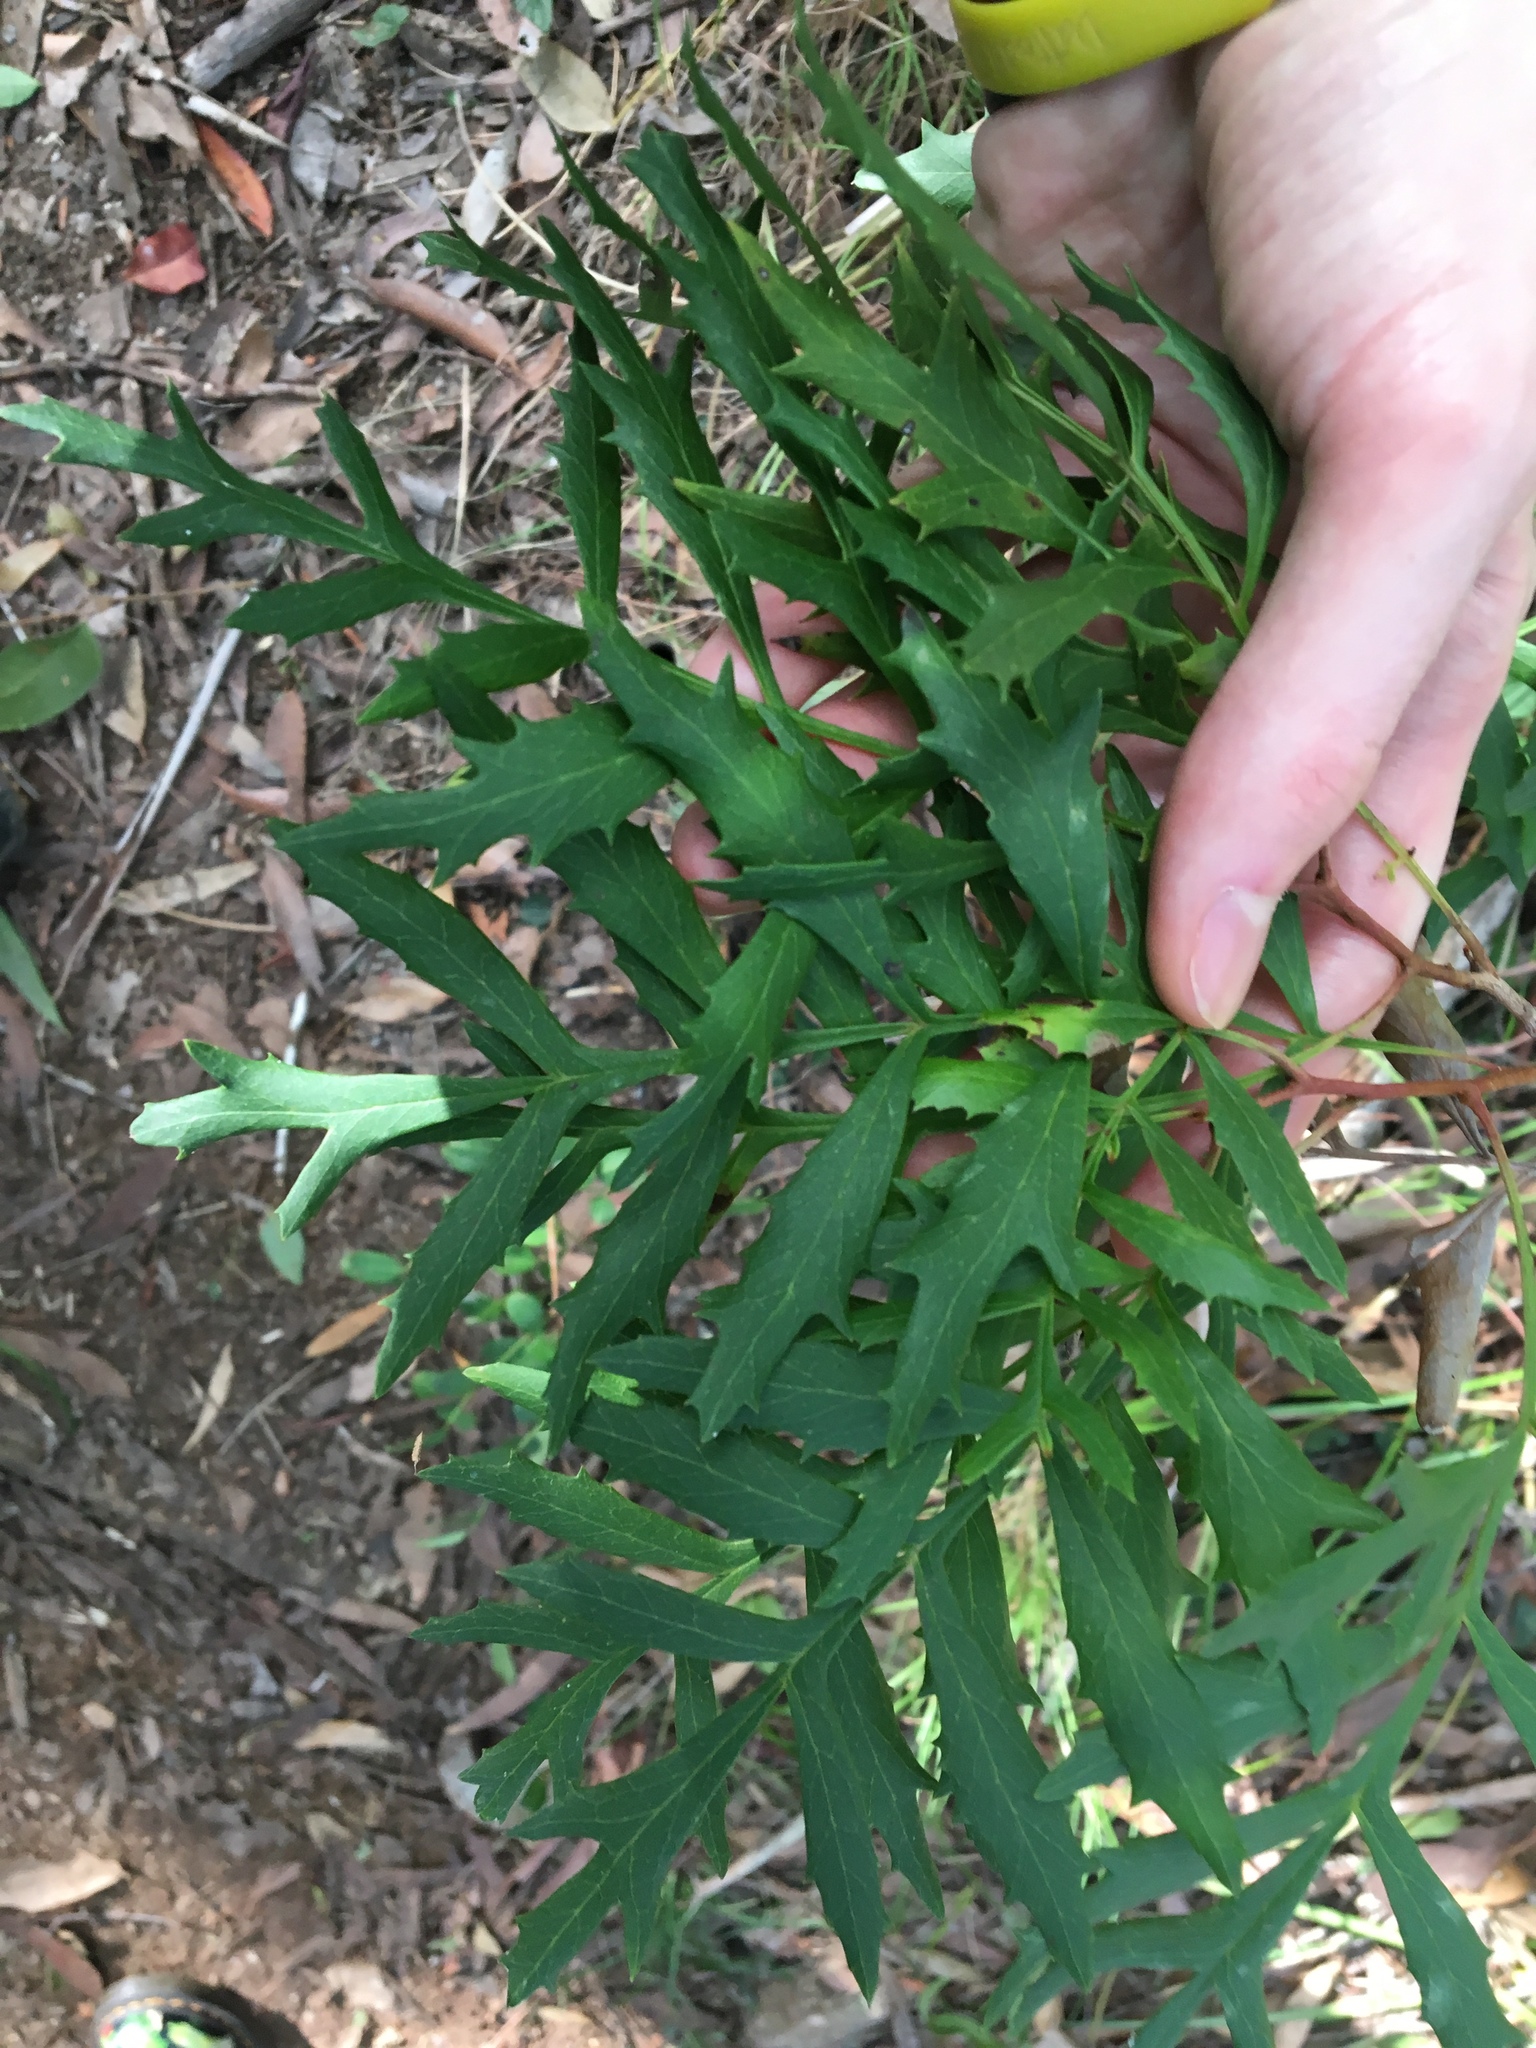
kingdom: Plantae
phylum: Tracheophyta
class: Magnoliopsida
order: Proteales
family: Proteaceae
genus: Lomatia
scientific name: Lomatia silaifolia
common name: Crinklebush
